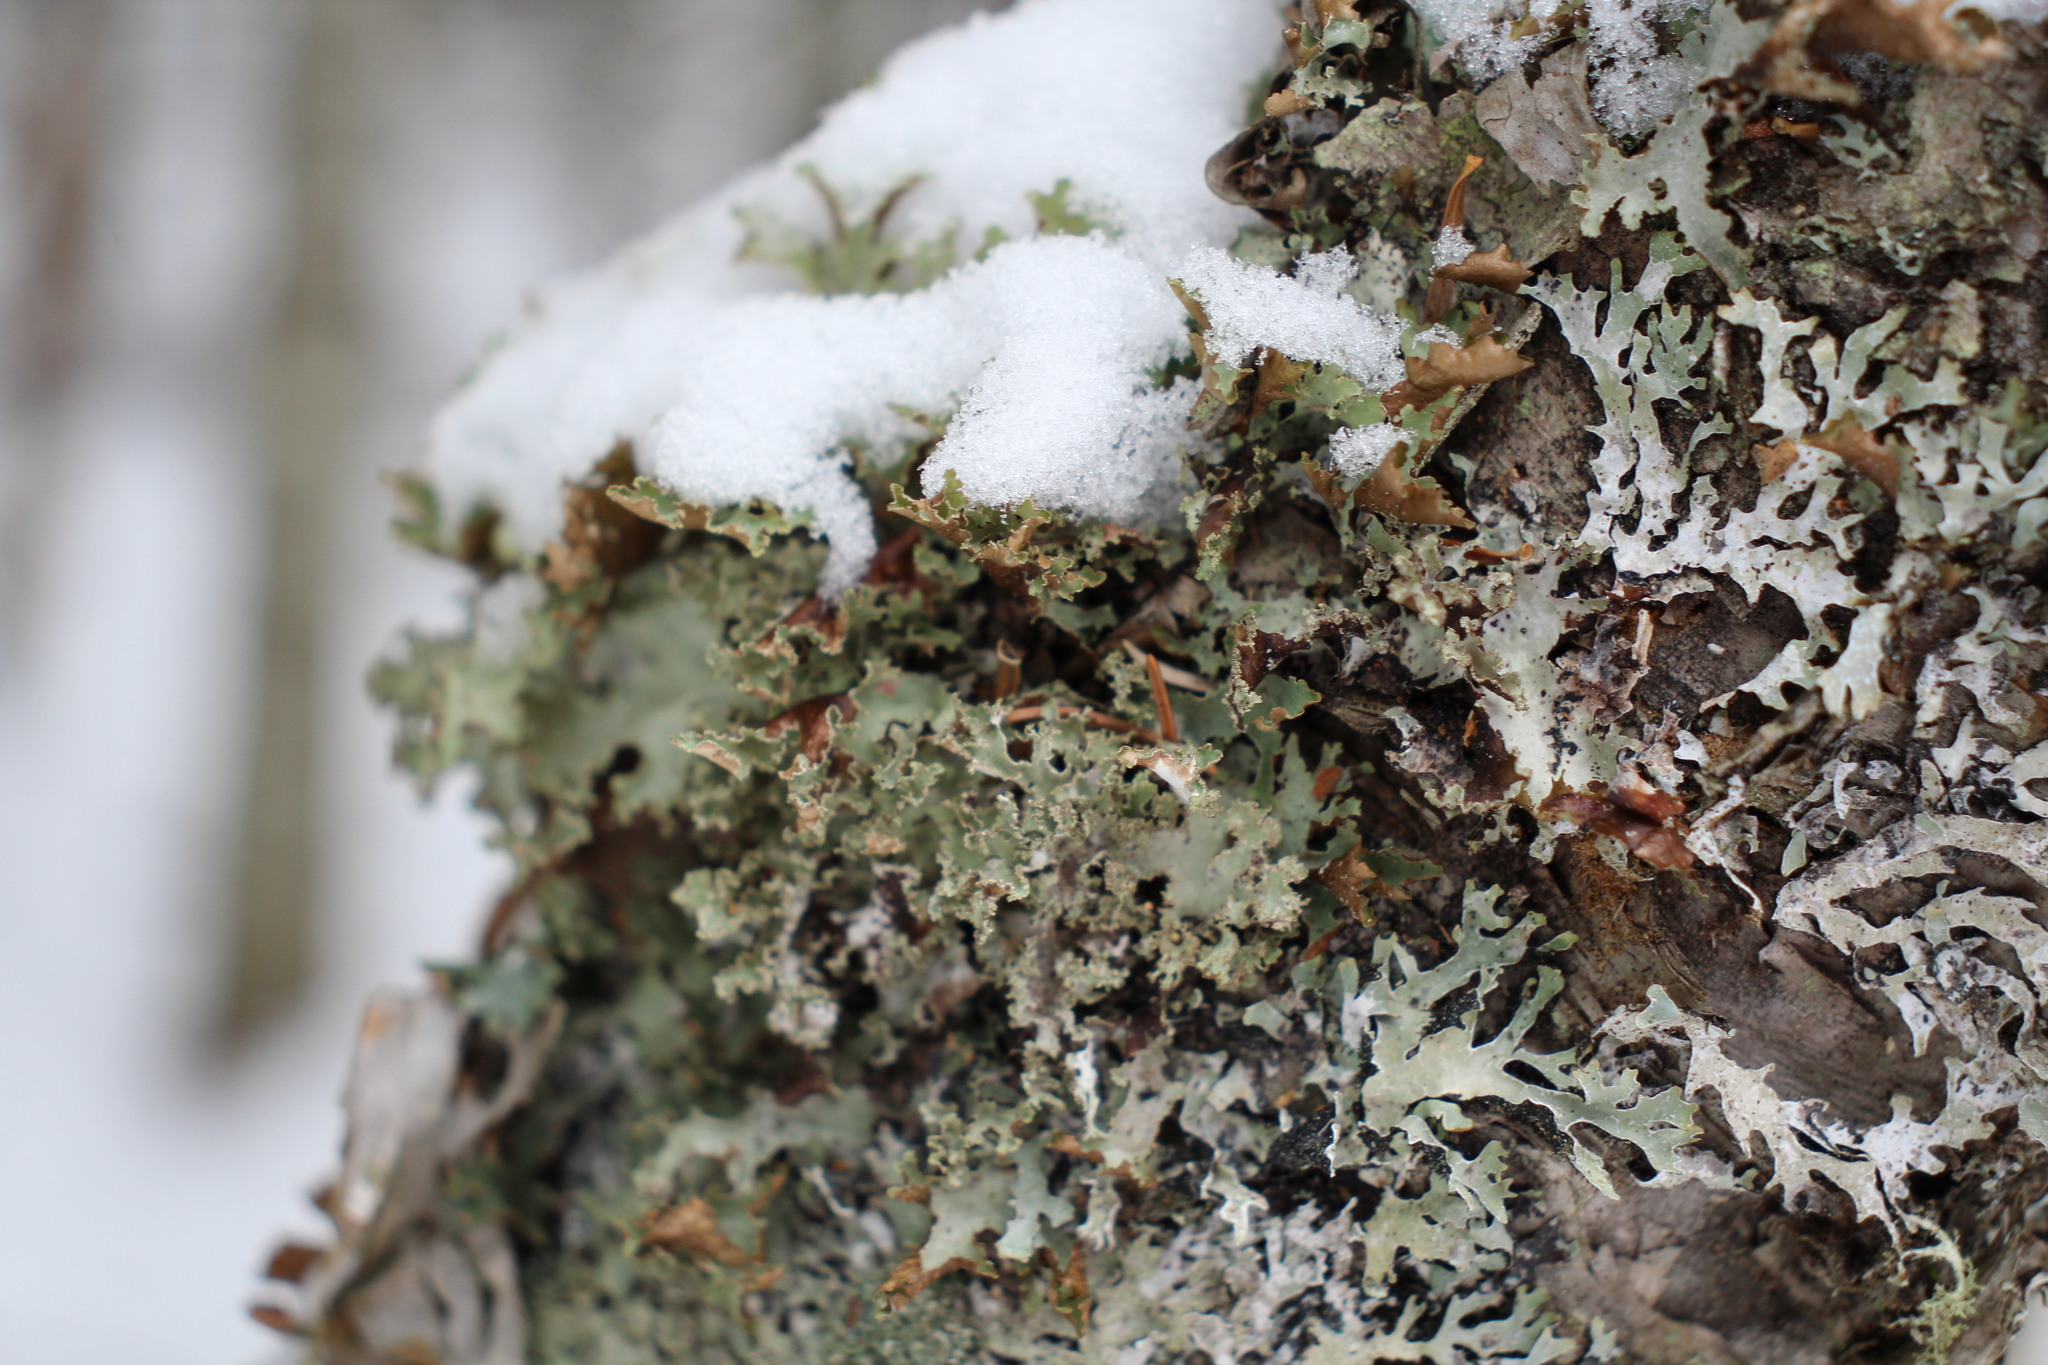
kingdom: Fungi
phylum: Ascomycota
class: Lecanoromycetes
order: Lecanorales
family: Parmeliaceae
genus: Platismatia
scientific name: Platismatia glauca
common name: Varied rag lichen
